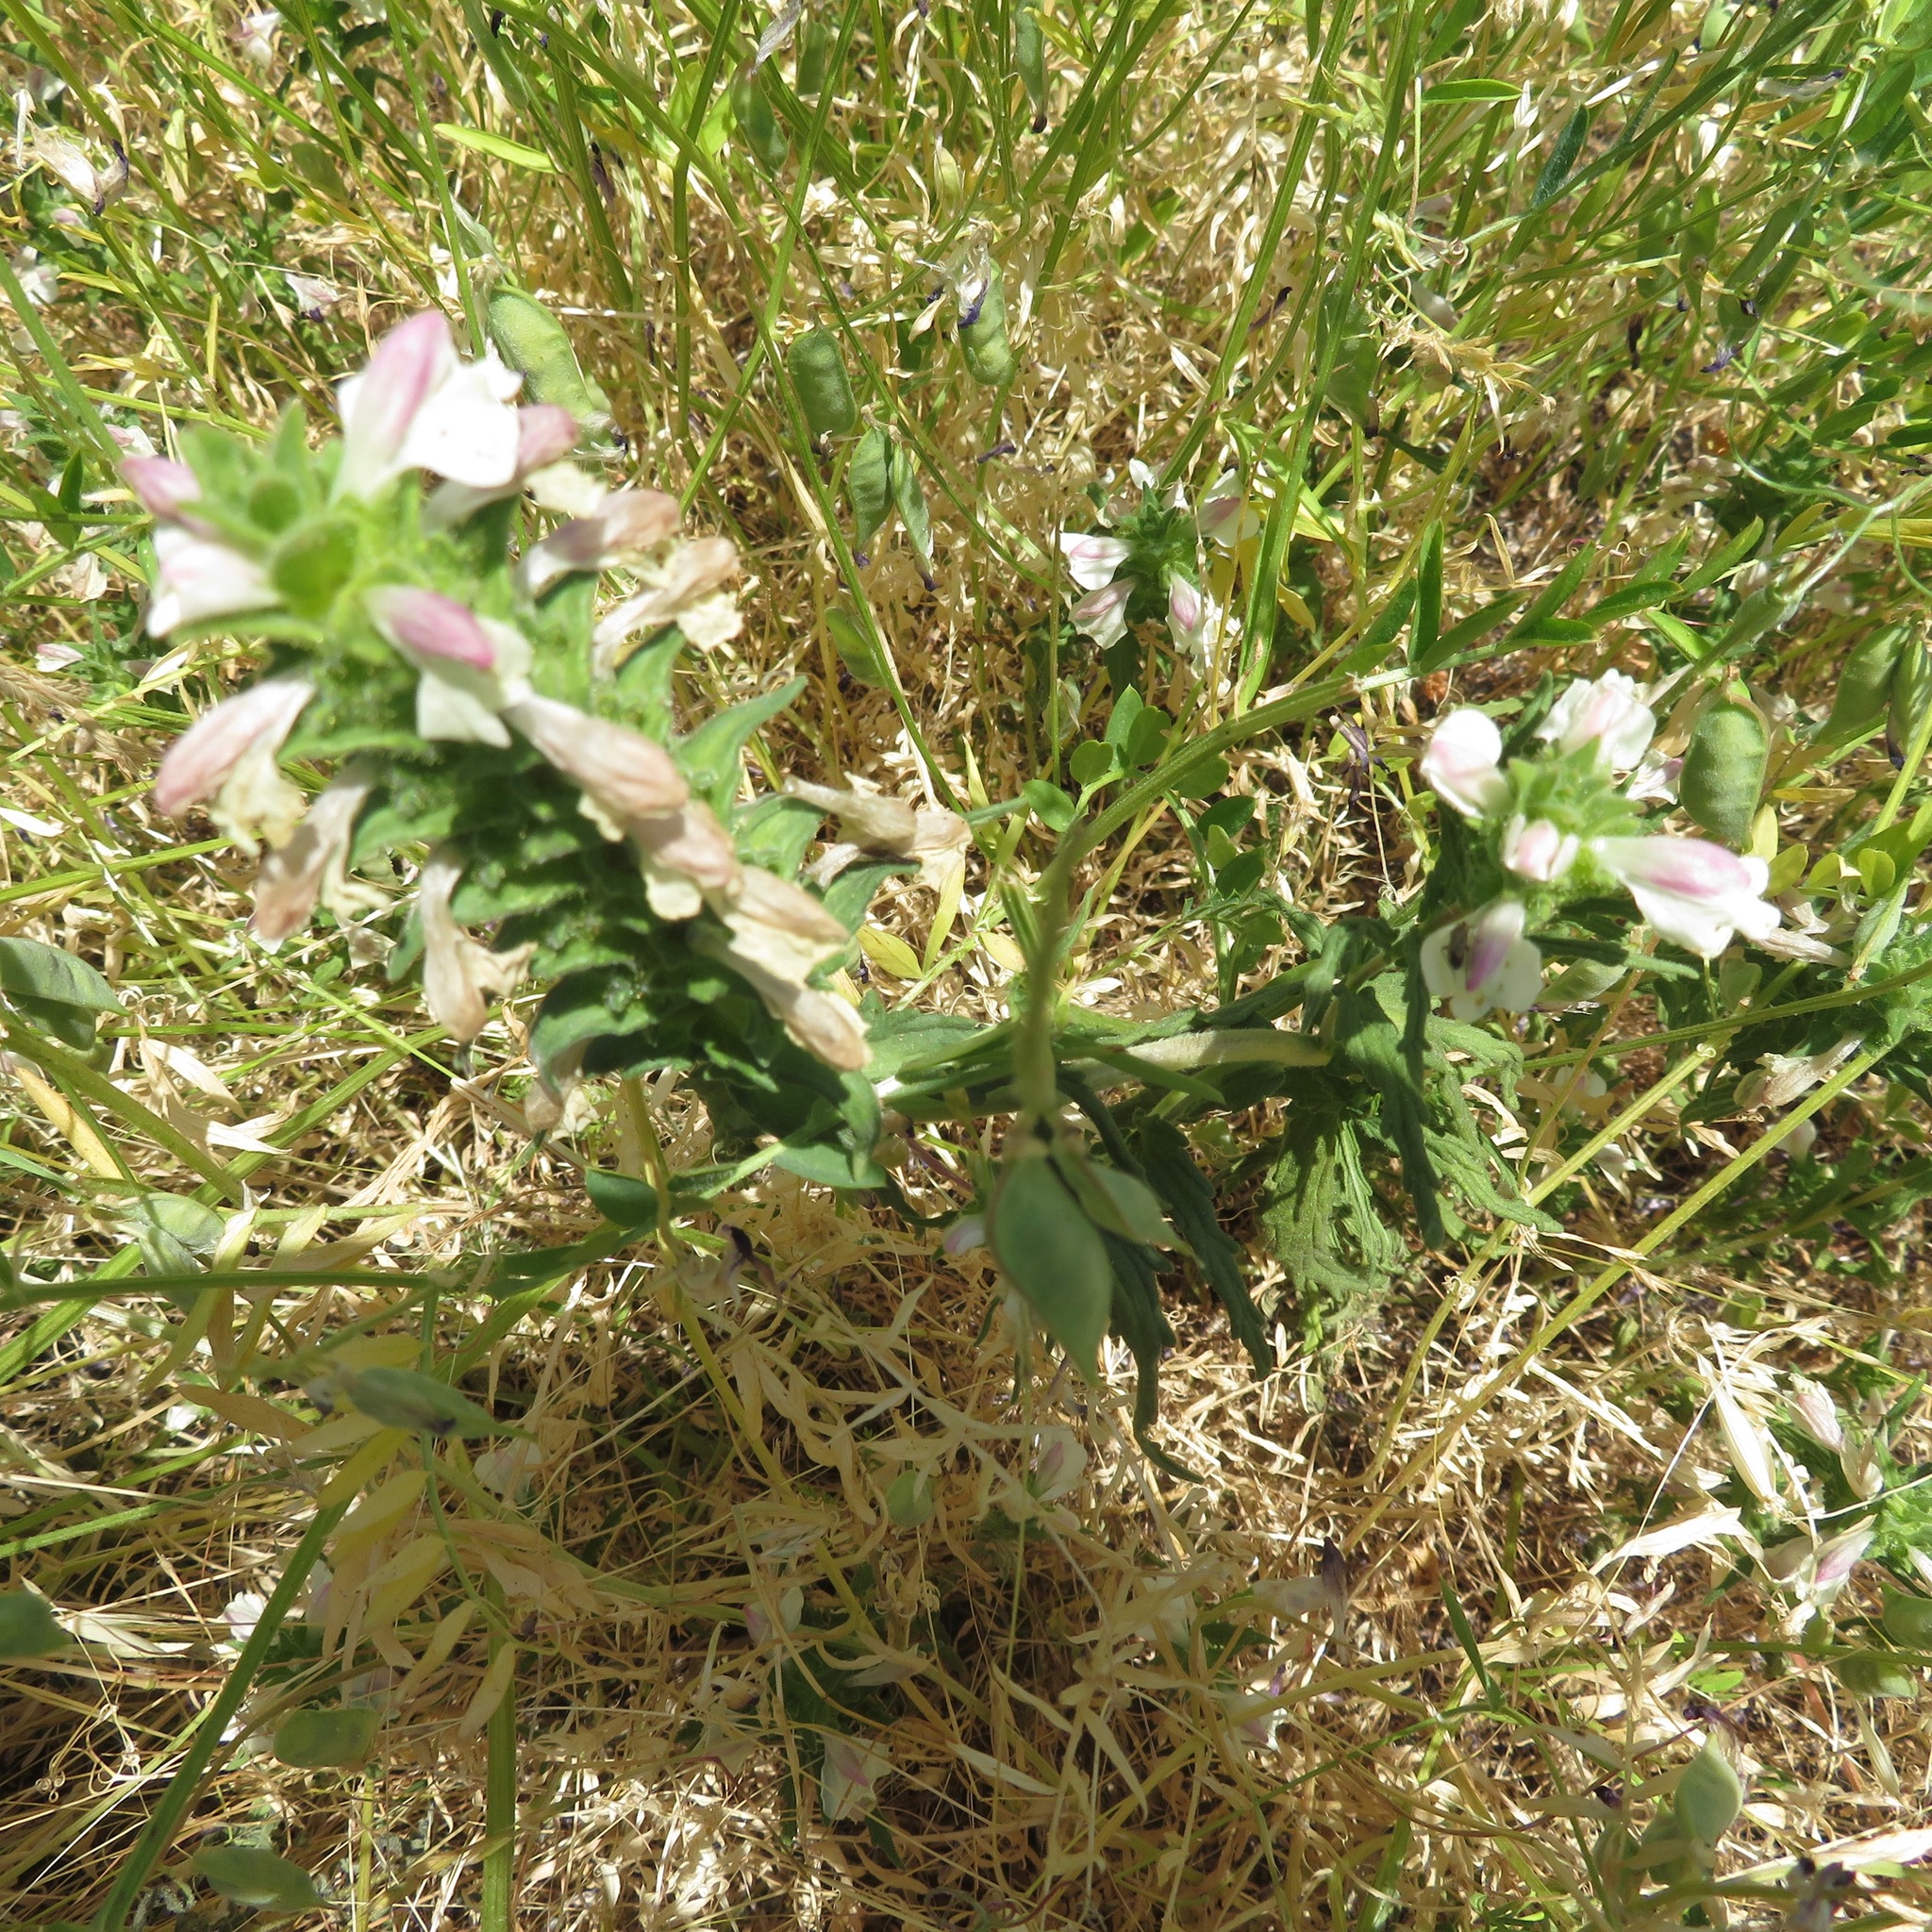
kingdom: Plantae
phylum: Tracheophyta
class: Magnoliopsida
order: Lamiales
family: Orobanchaceae
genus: Bellardia
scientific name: Bellardia trixago
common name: Mediterranean lineseed
